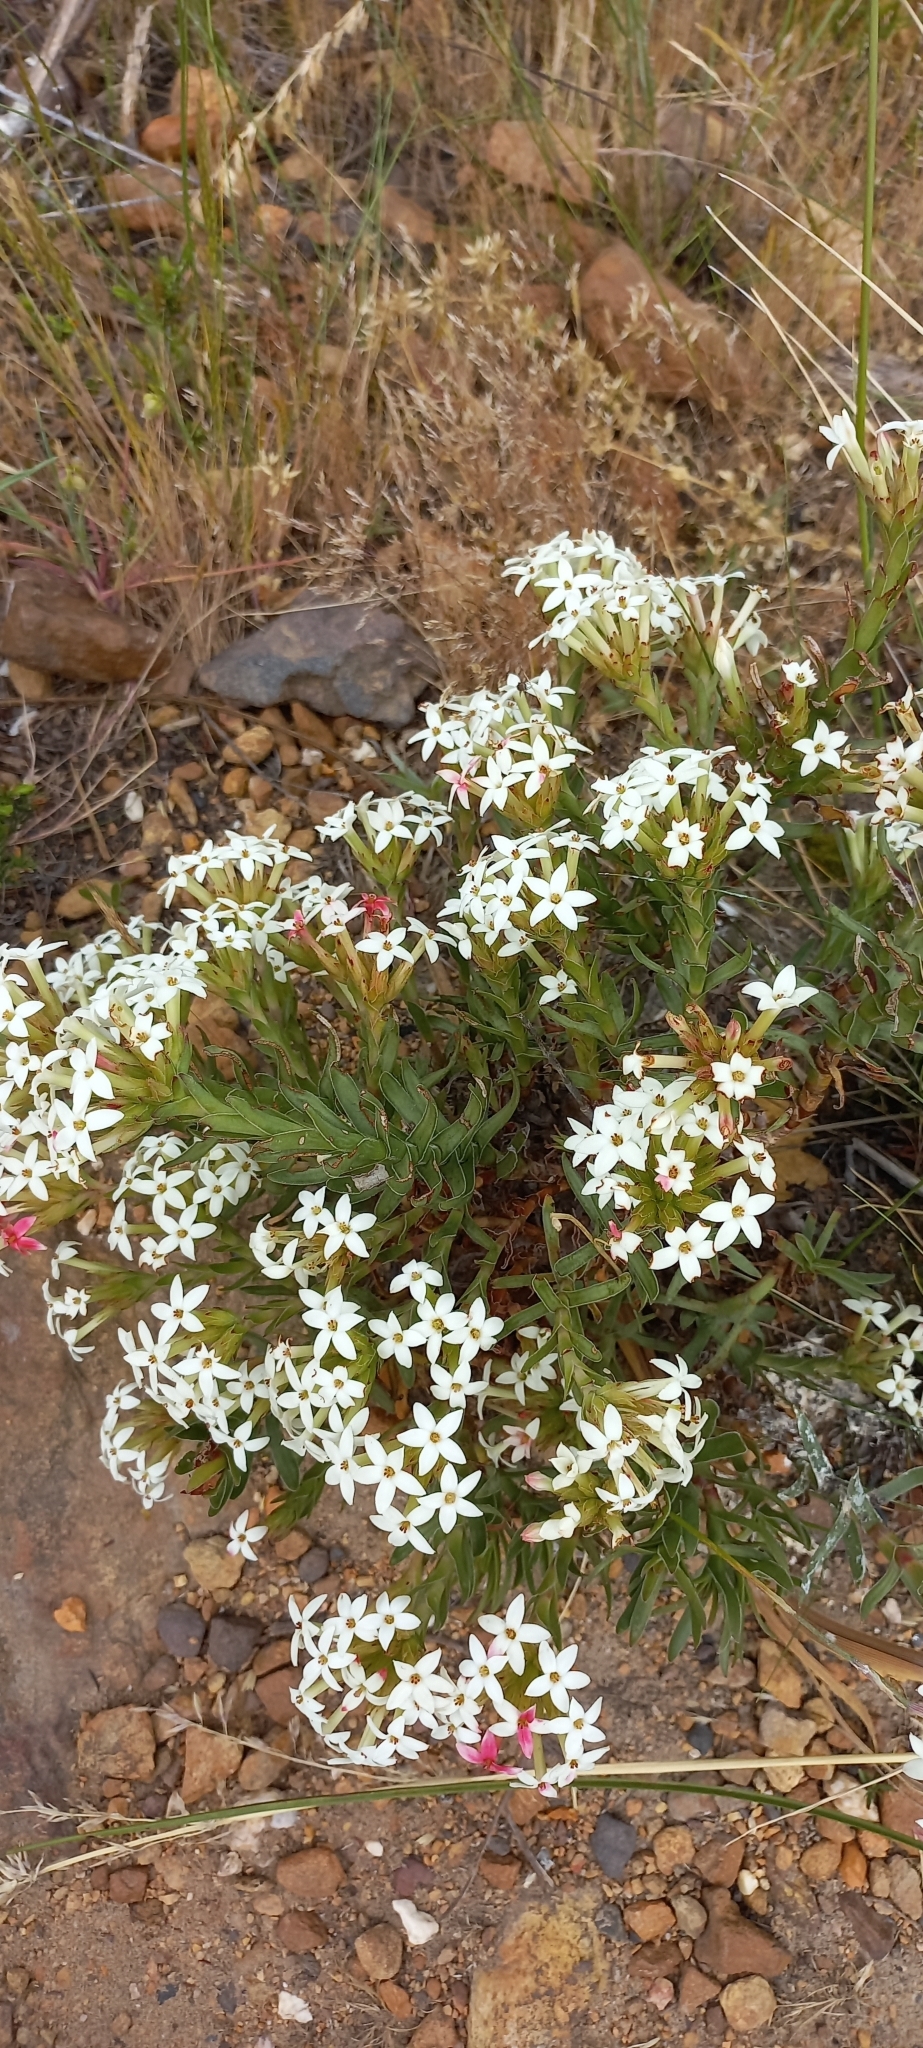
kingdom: Plantae
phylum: Tracheophyta
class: Magnoliopsida
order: Saxifragales
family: Crassulaceae
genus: Crassula
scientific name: Crassula fascicularis
